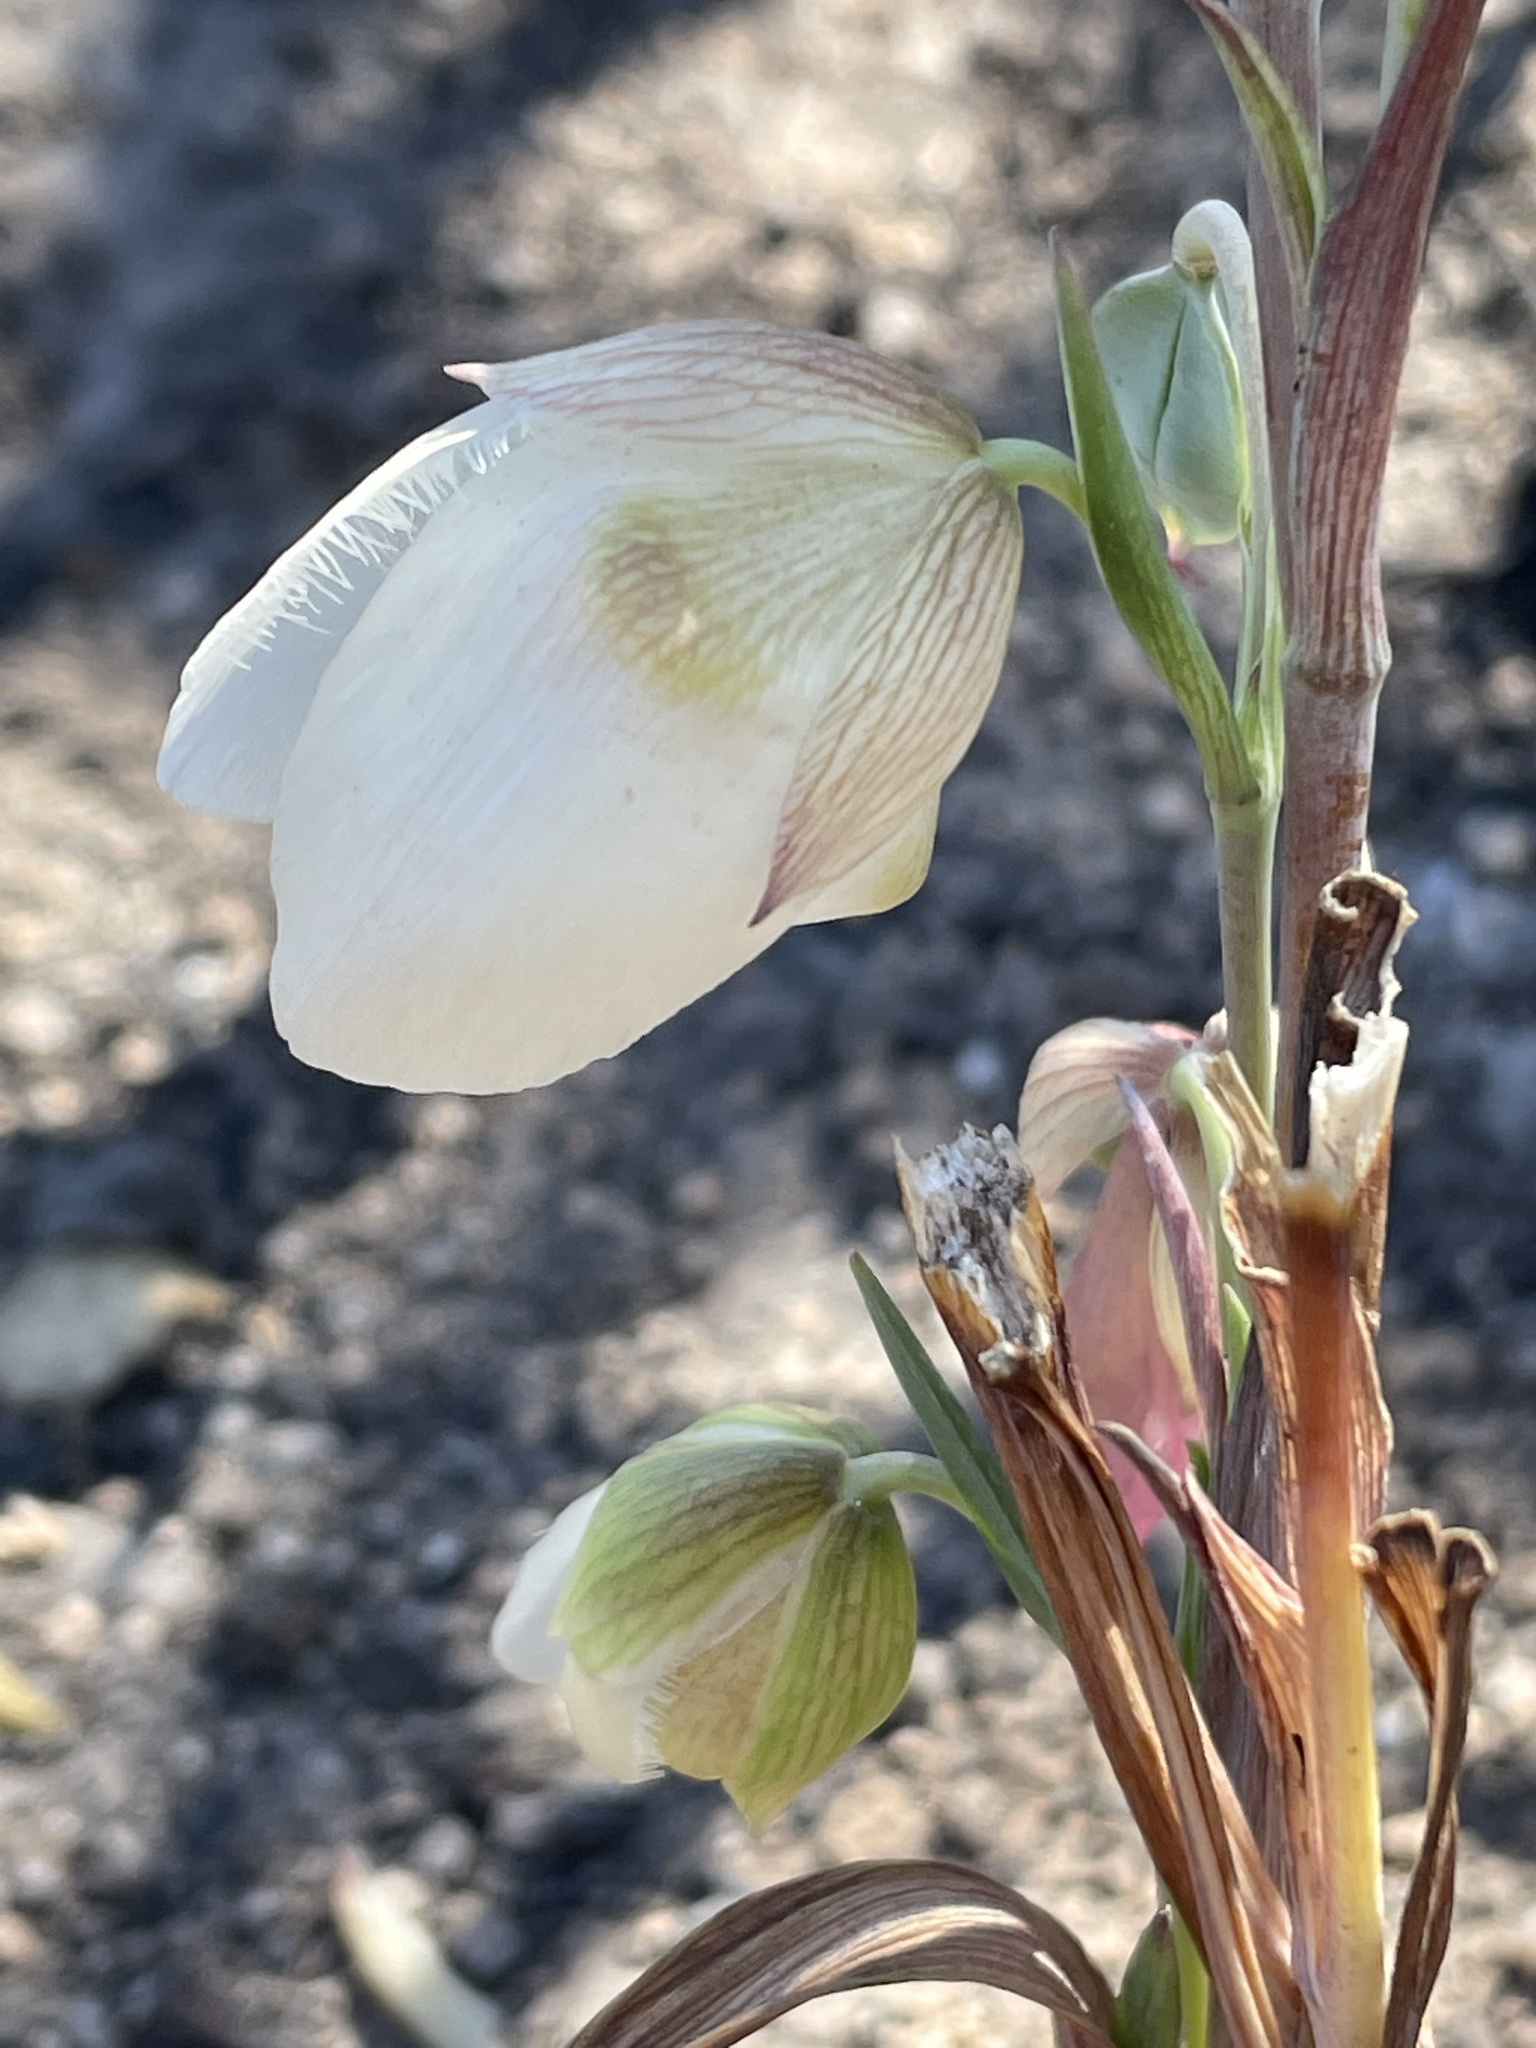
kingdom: Plantae
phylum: Tracheophyta
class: Liliopsida
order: Liliales
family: Liliaceae
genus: Calochortus
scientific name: Calochortus albus
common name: Fairy-lantern
